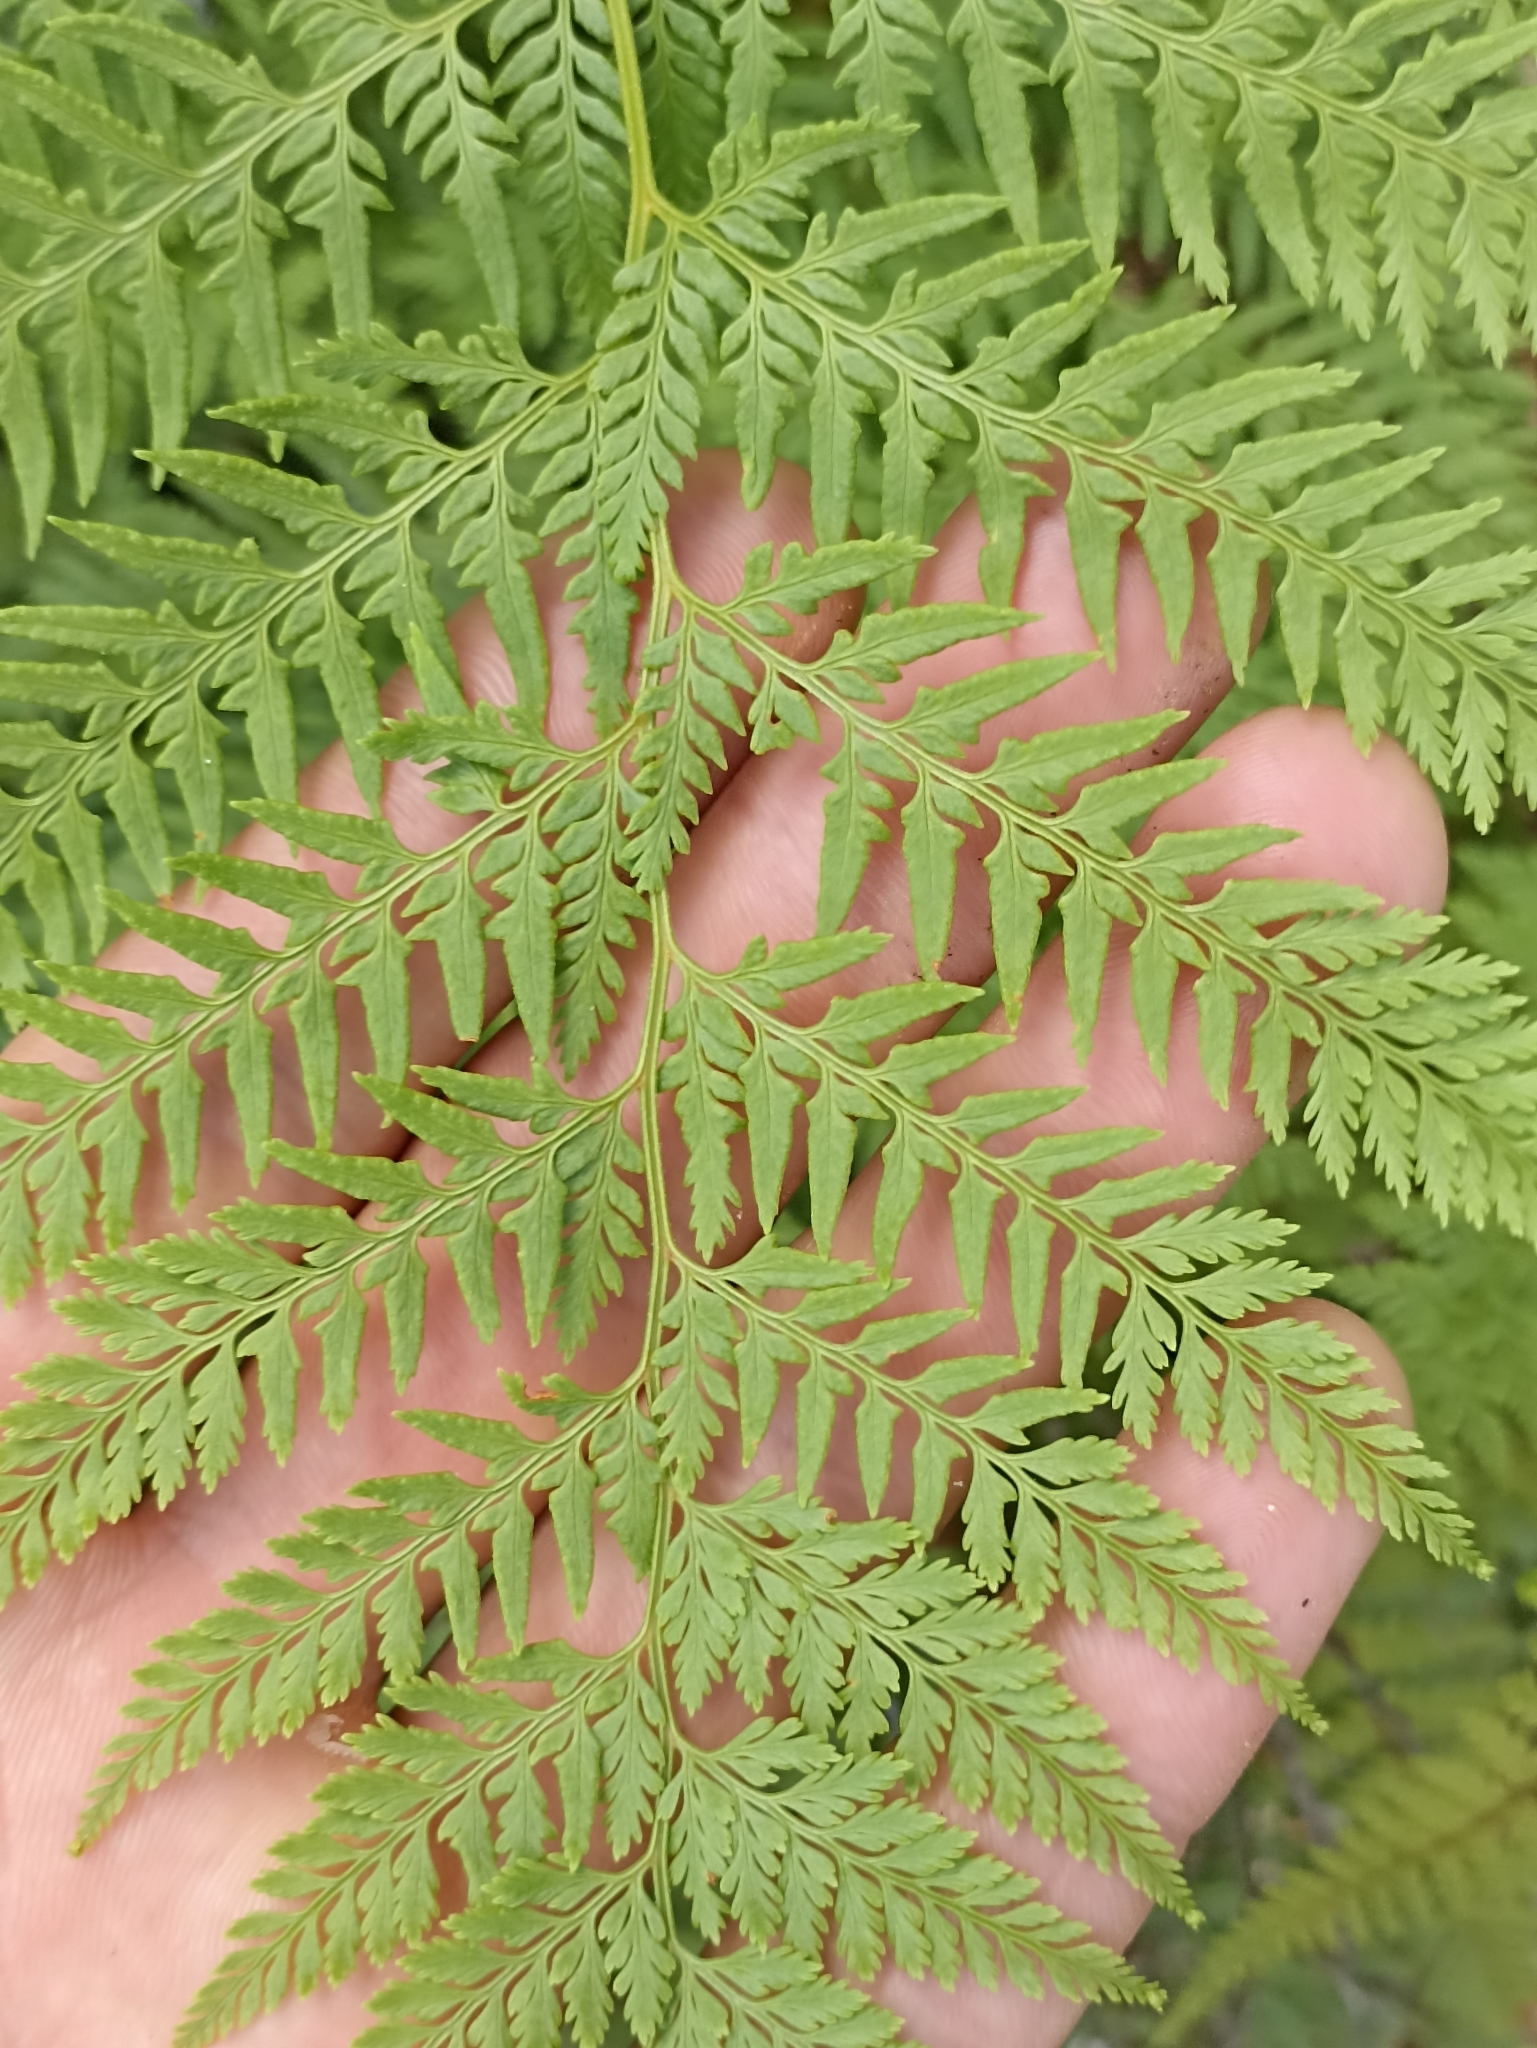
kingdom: Plantae
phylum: Tracheophyta
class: Polypodiopsida
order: Polypodiales
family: Dennstaedtiaceae
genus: Paesia
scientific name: Paesia scaberula
